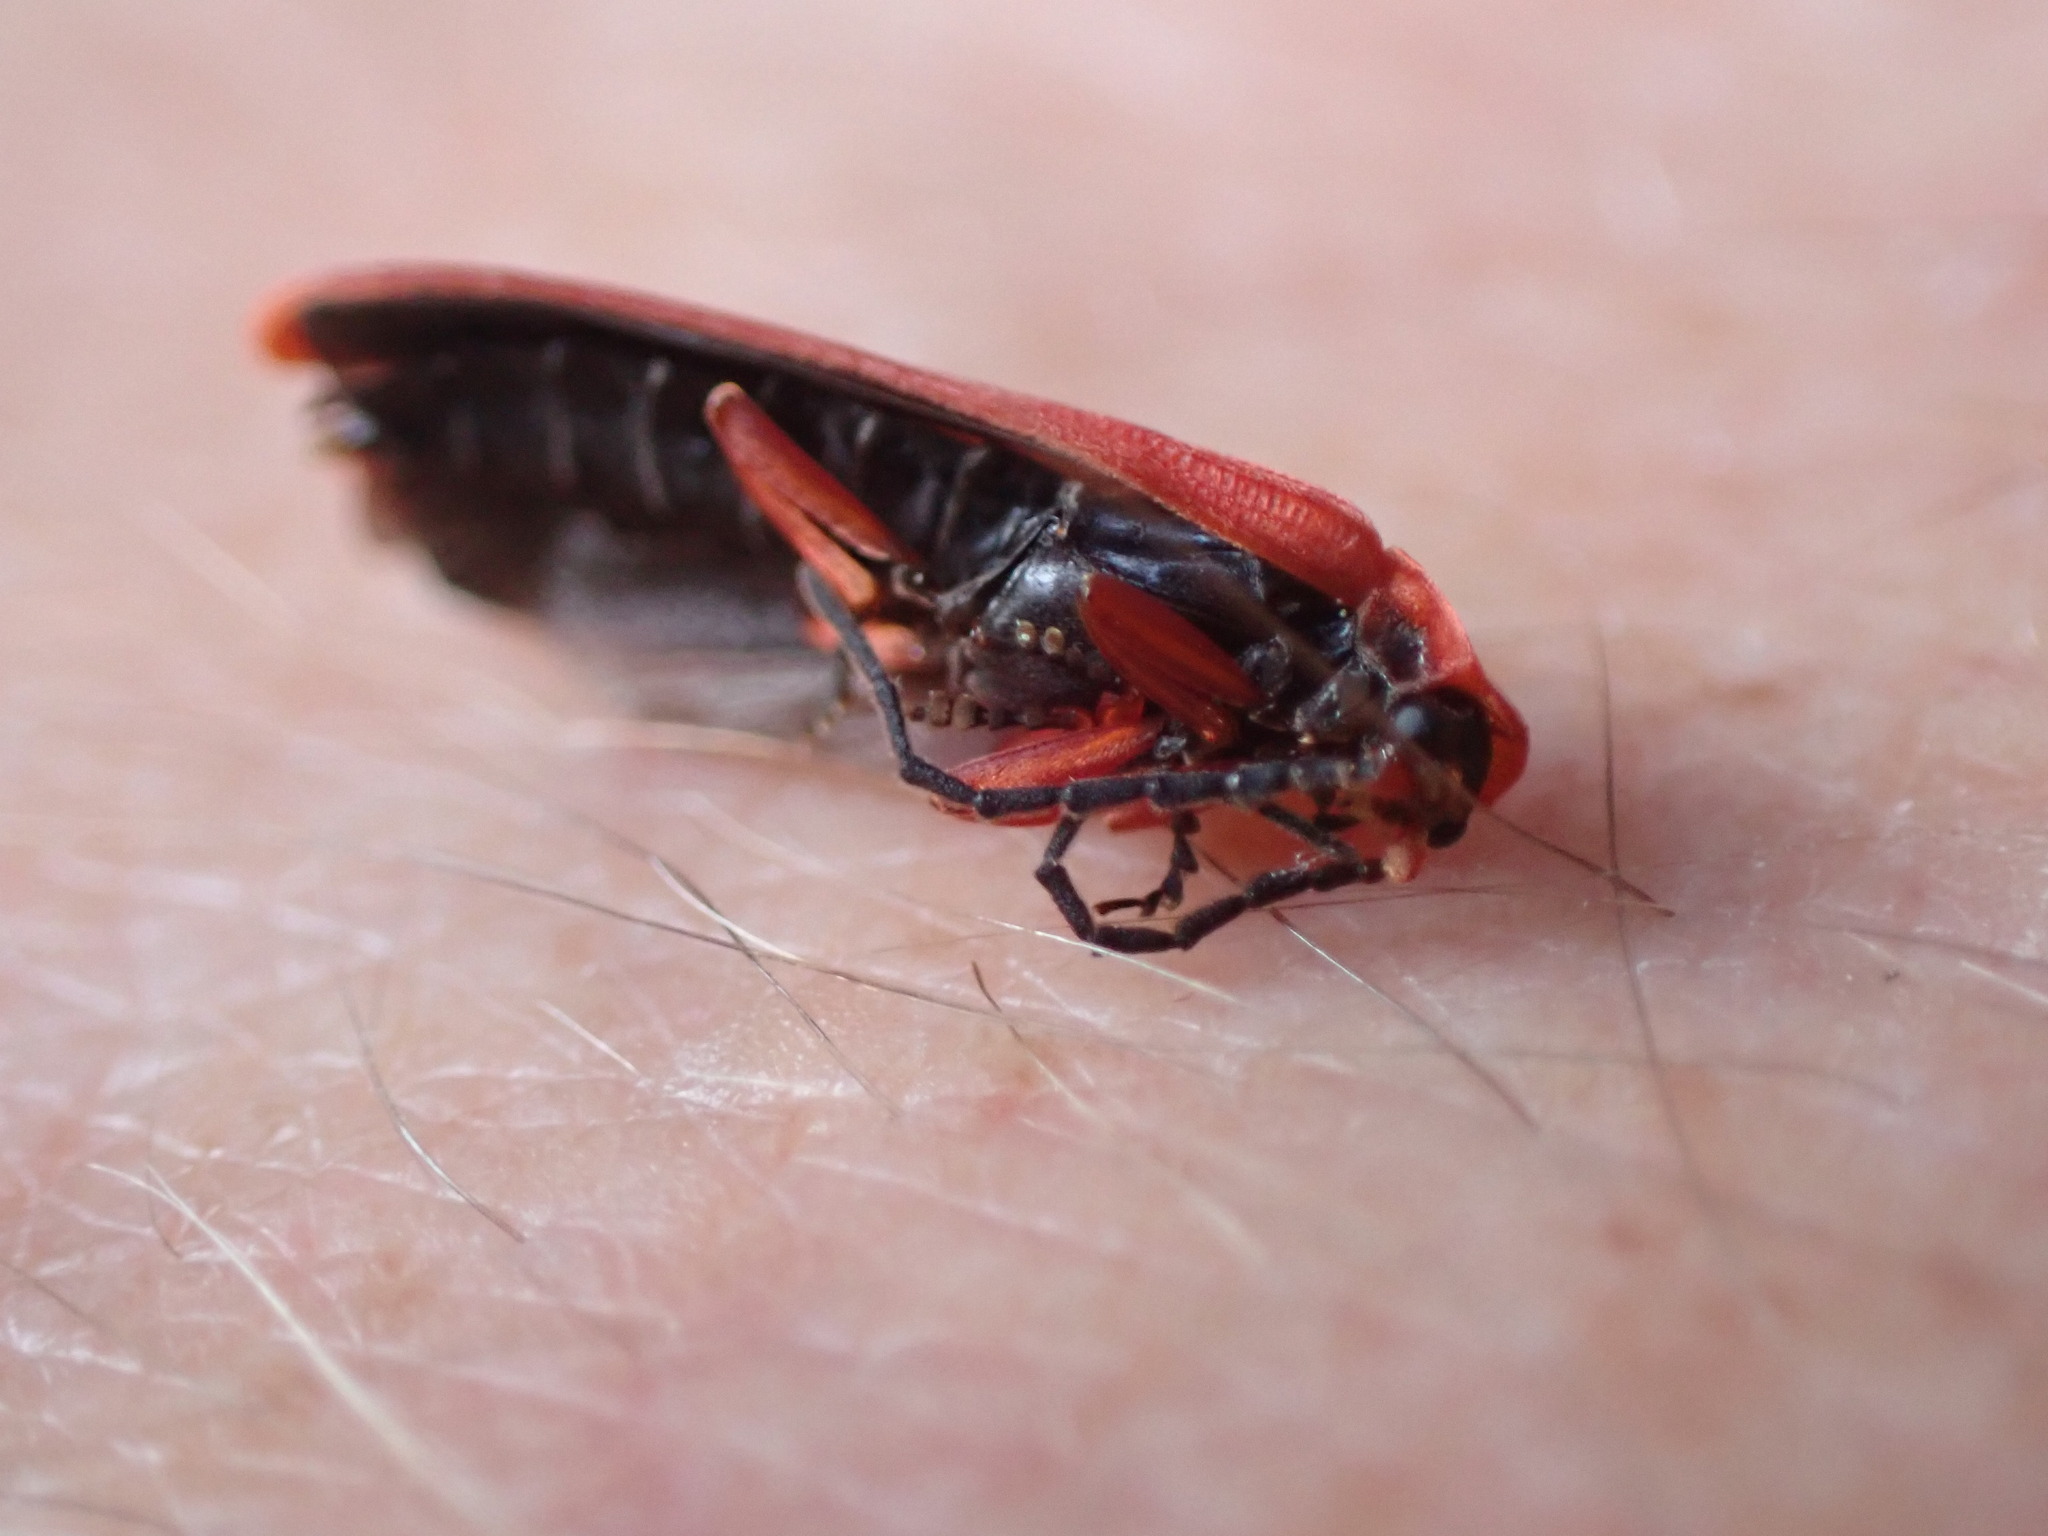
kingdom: Animalia
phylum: Arthropoda
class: Insecta
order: Coleoptera
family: Lycidae
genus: Dictyoptera
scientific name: Dictyoptera simplicipes
